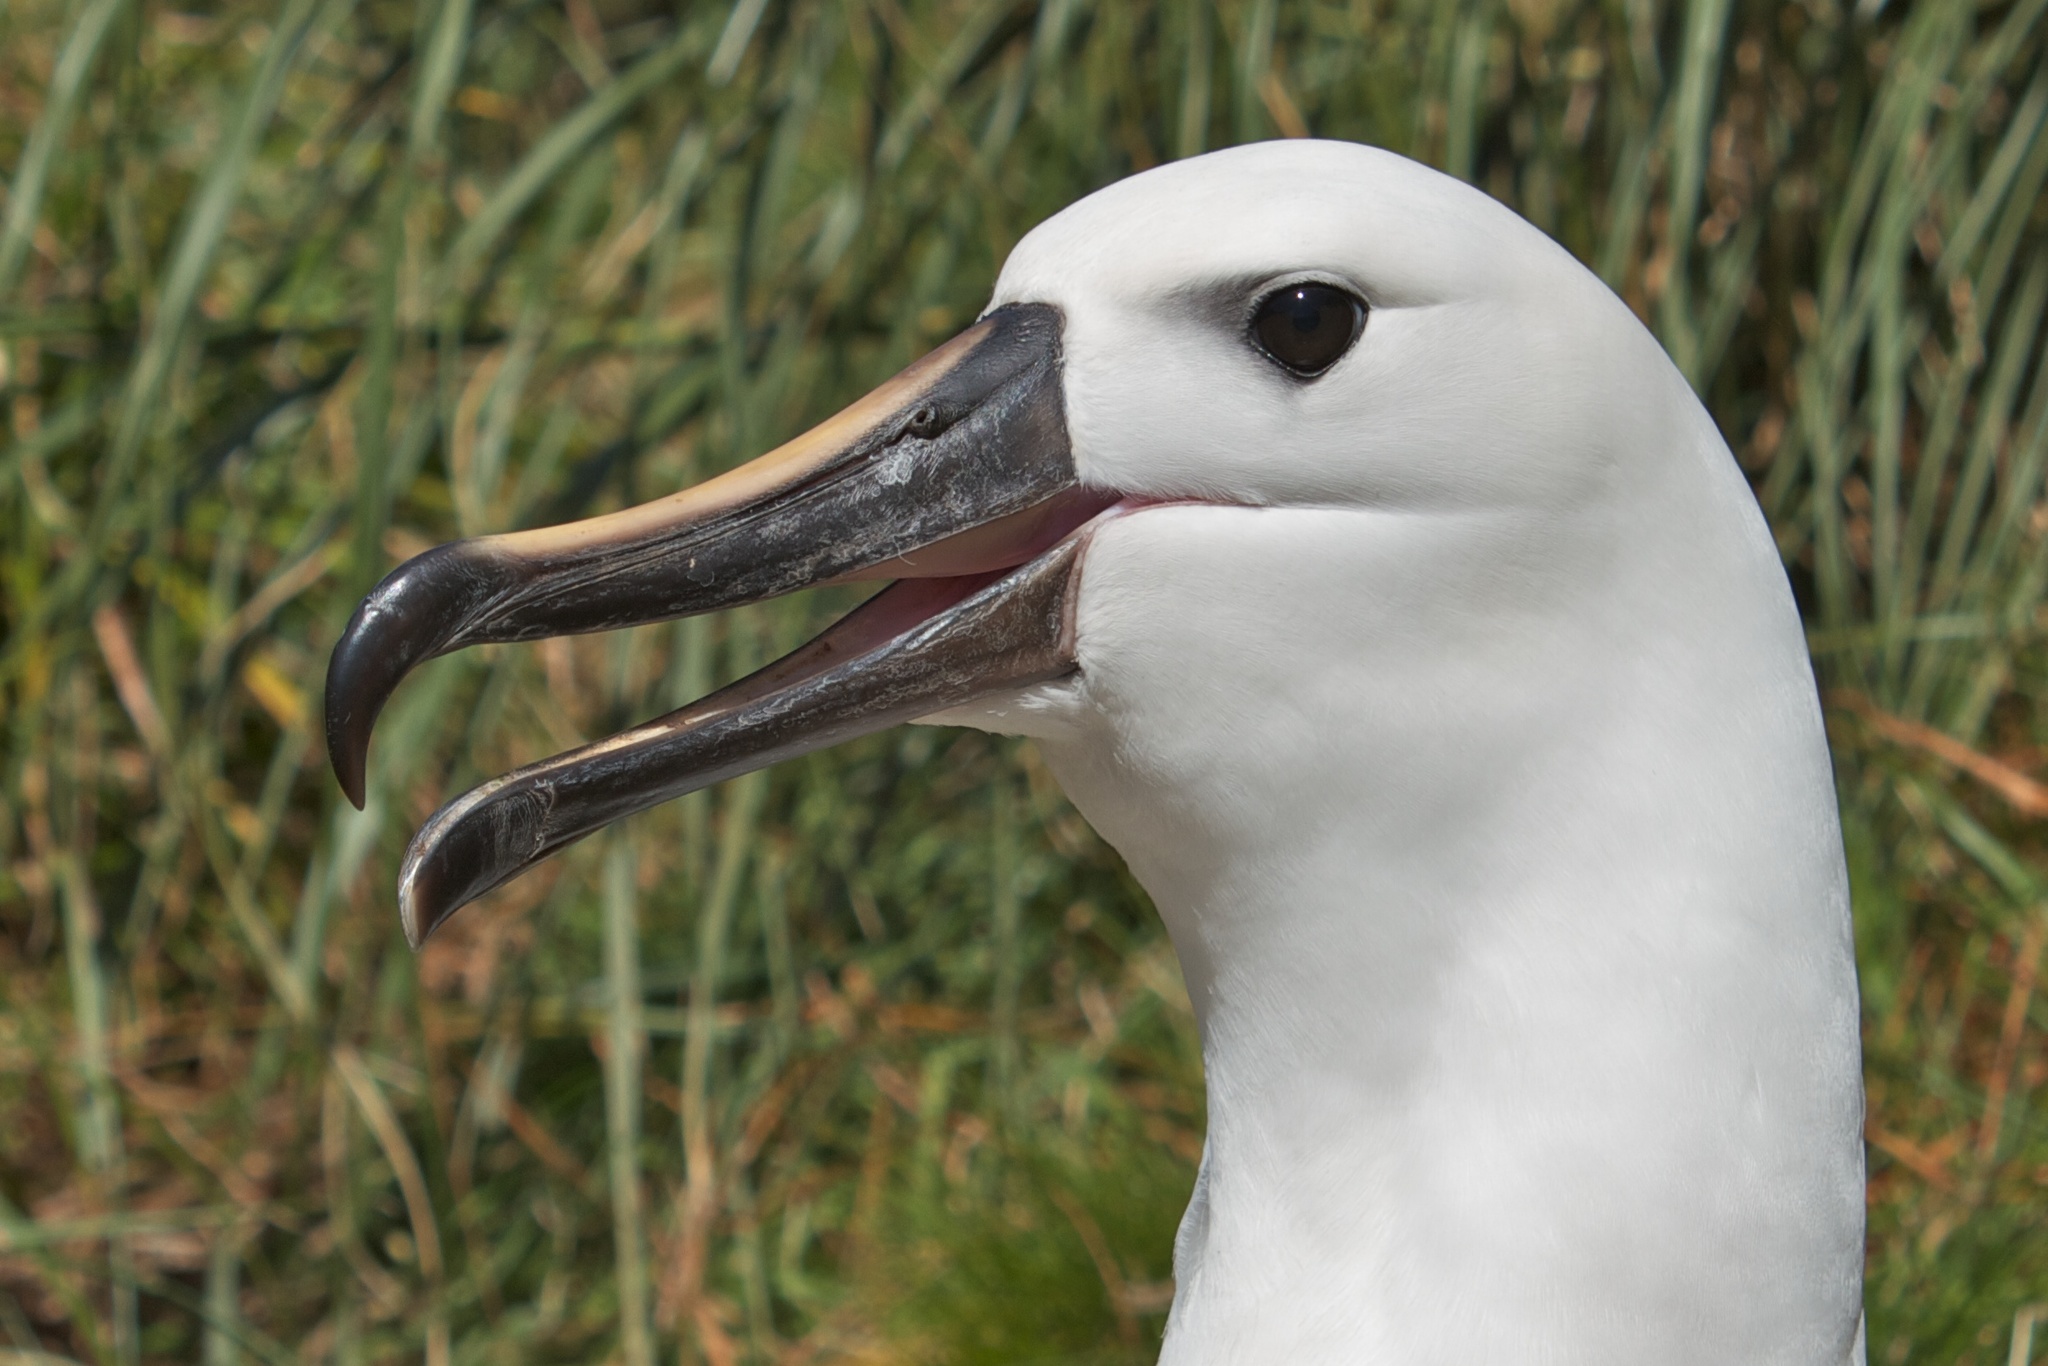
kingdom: Animalia
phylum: Chordata
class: Aves
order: Procellariiformes
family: Diomedeidae
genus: Thalassarche
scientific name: Thalassarche chlororhynchos
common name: Atlantic yellow-nosed albatross
